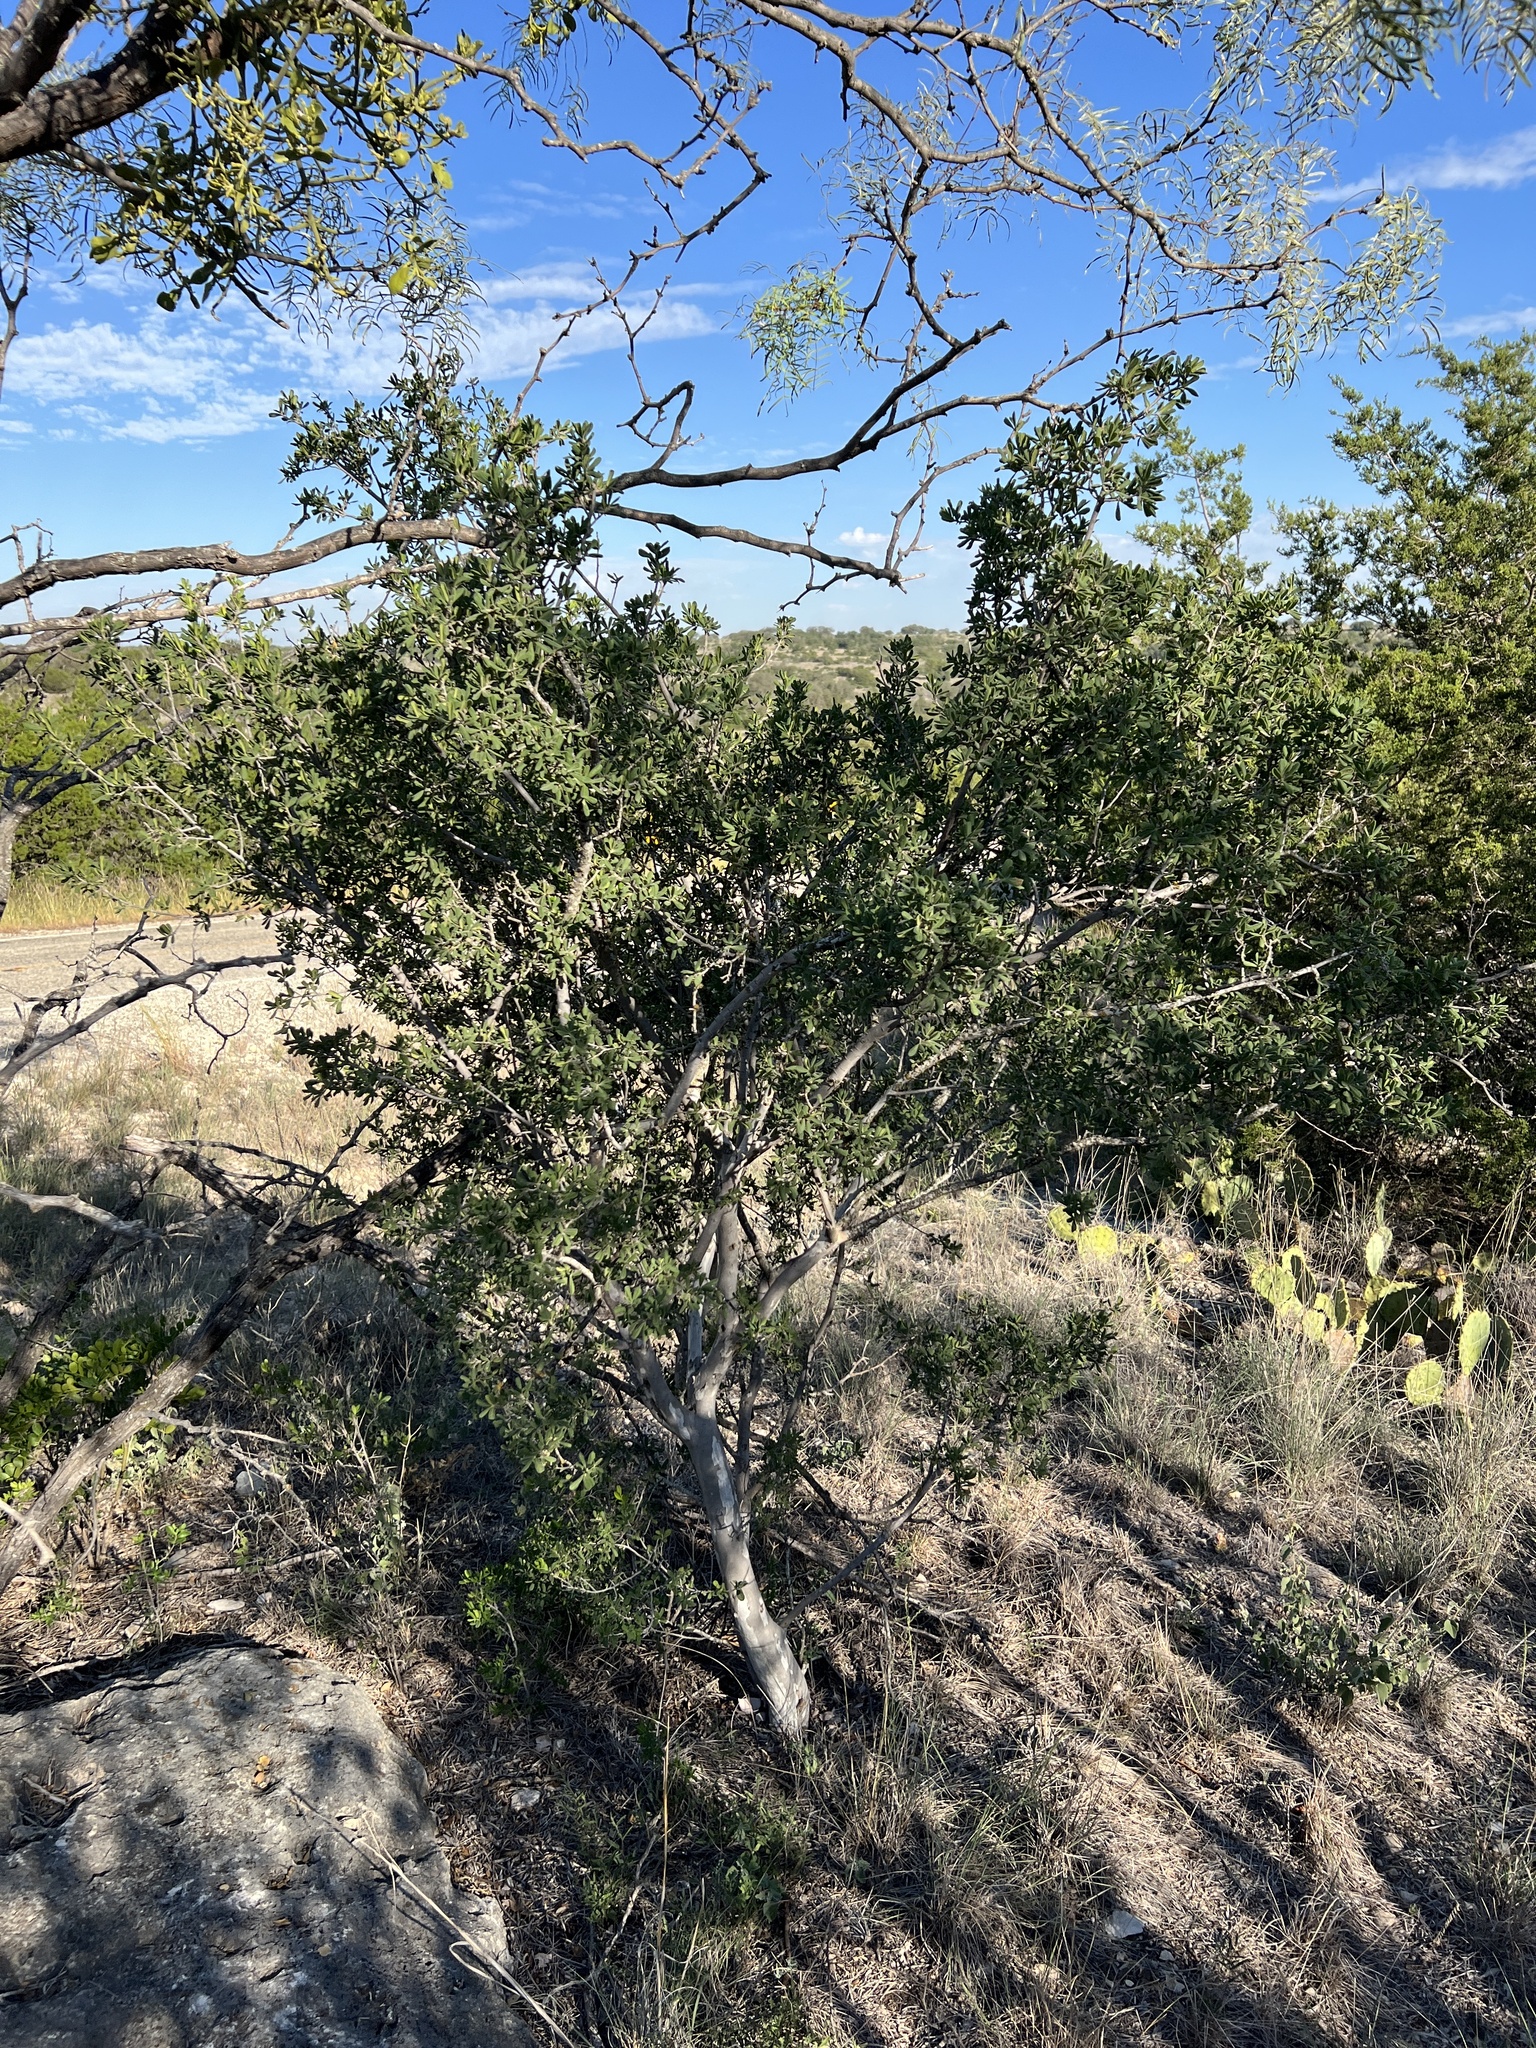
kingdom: Plantae
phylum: Tracheophyta
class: Magnoliopsida
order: Ericales
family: Ebenaceae
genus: Diospyros
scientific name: Diospyros texana
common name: Texas persimmon
